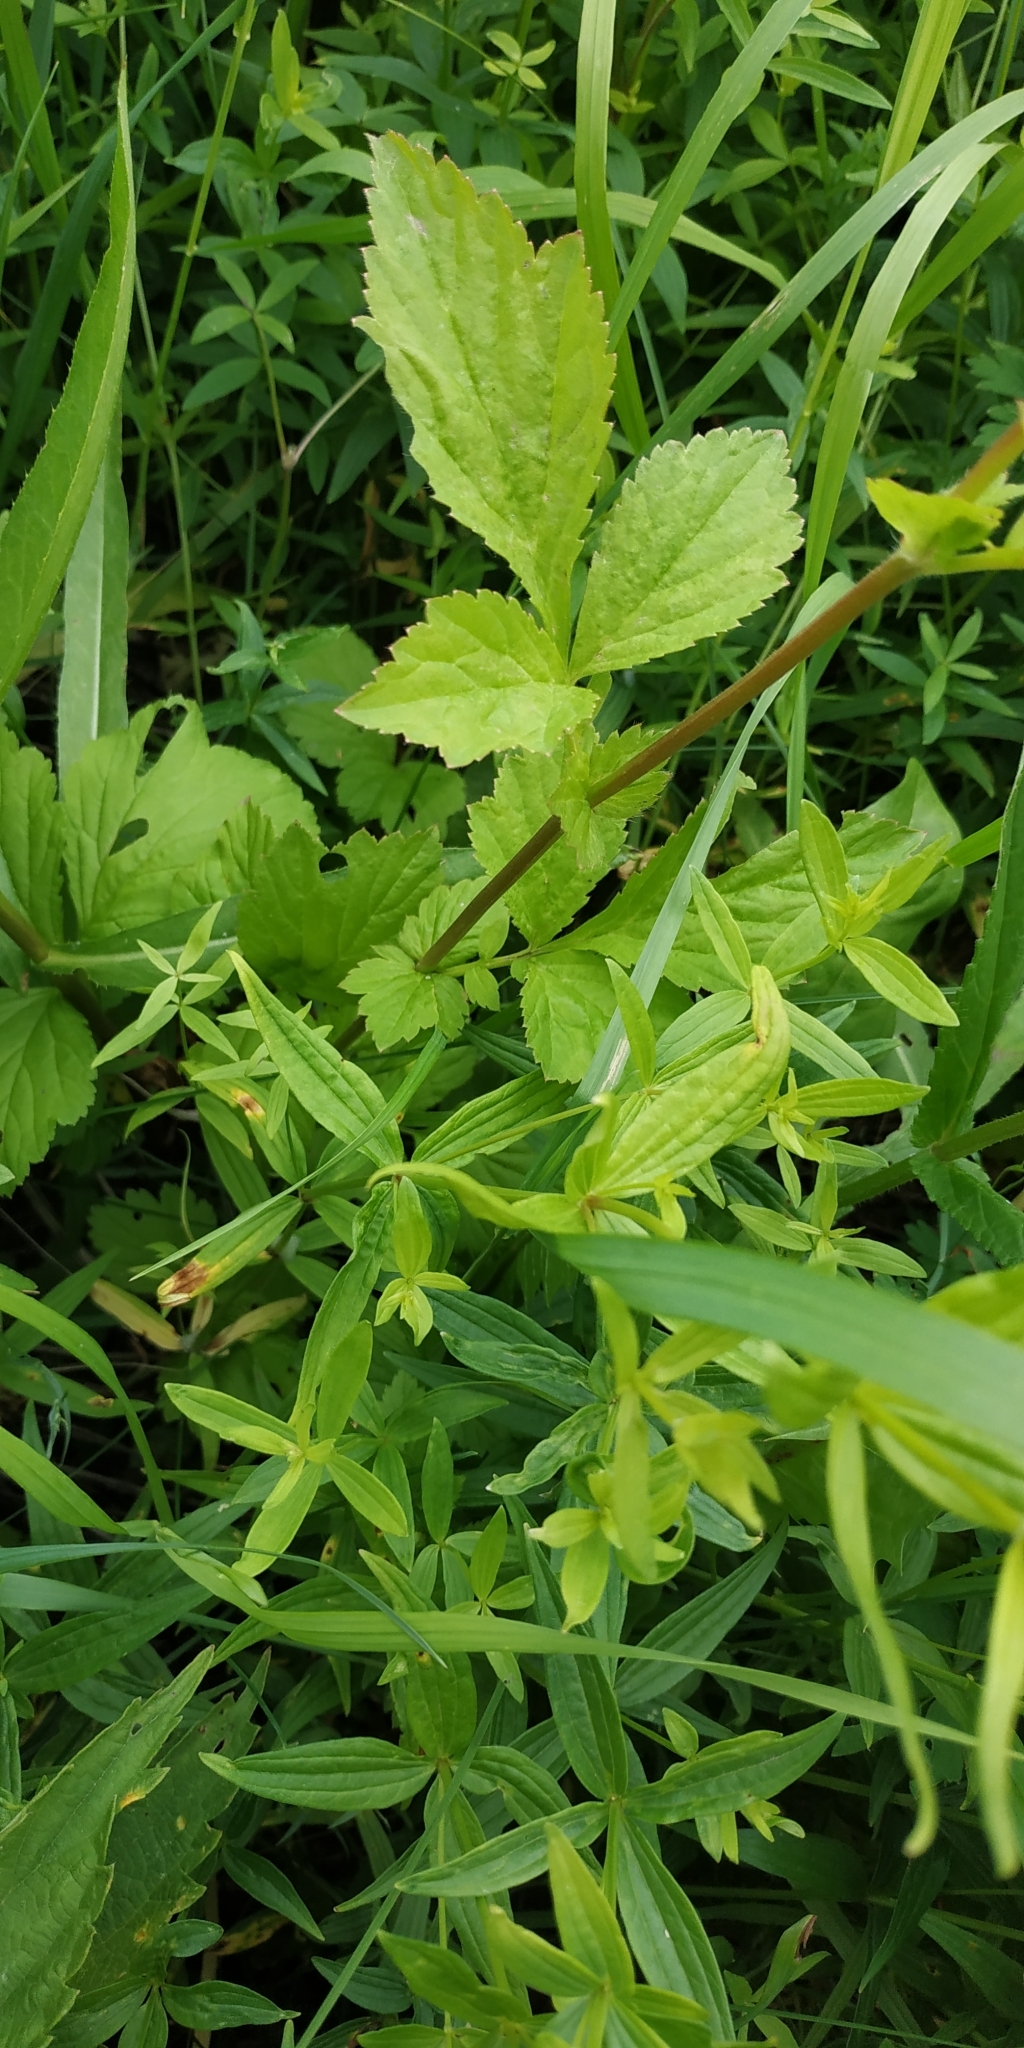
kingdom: Plantae
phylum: Tracheophyta
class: Magnoliopsida
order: Rosales
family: Rosaceae
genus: Geum
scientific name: Geum aleppicum
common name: Yellow avens
